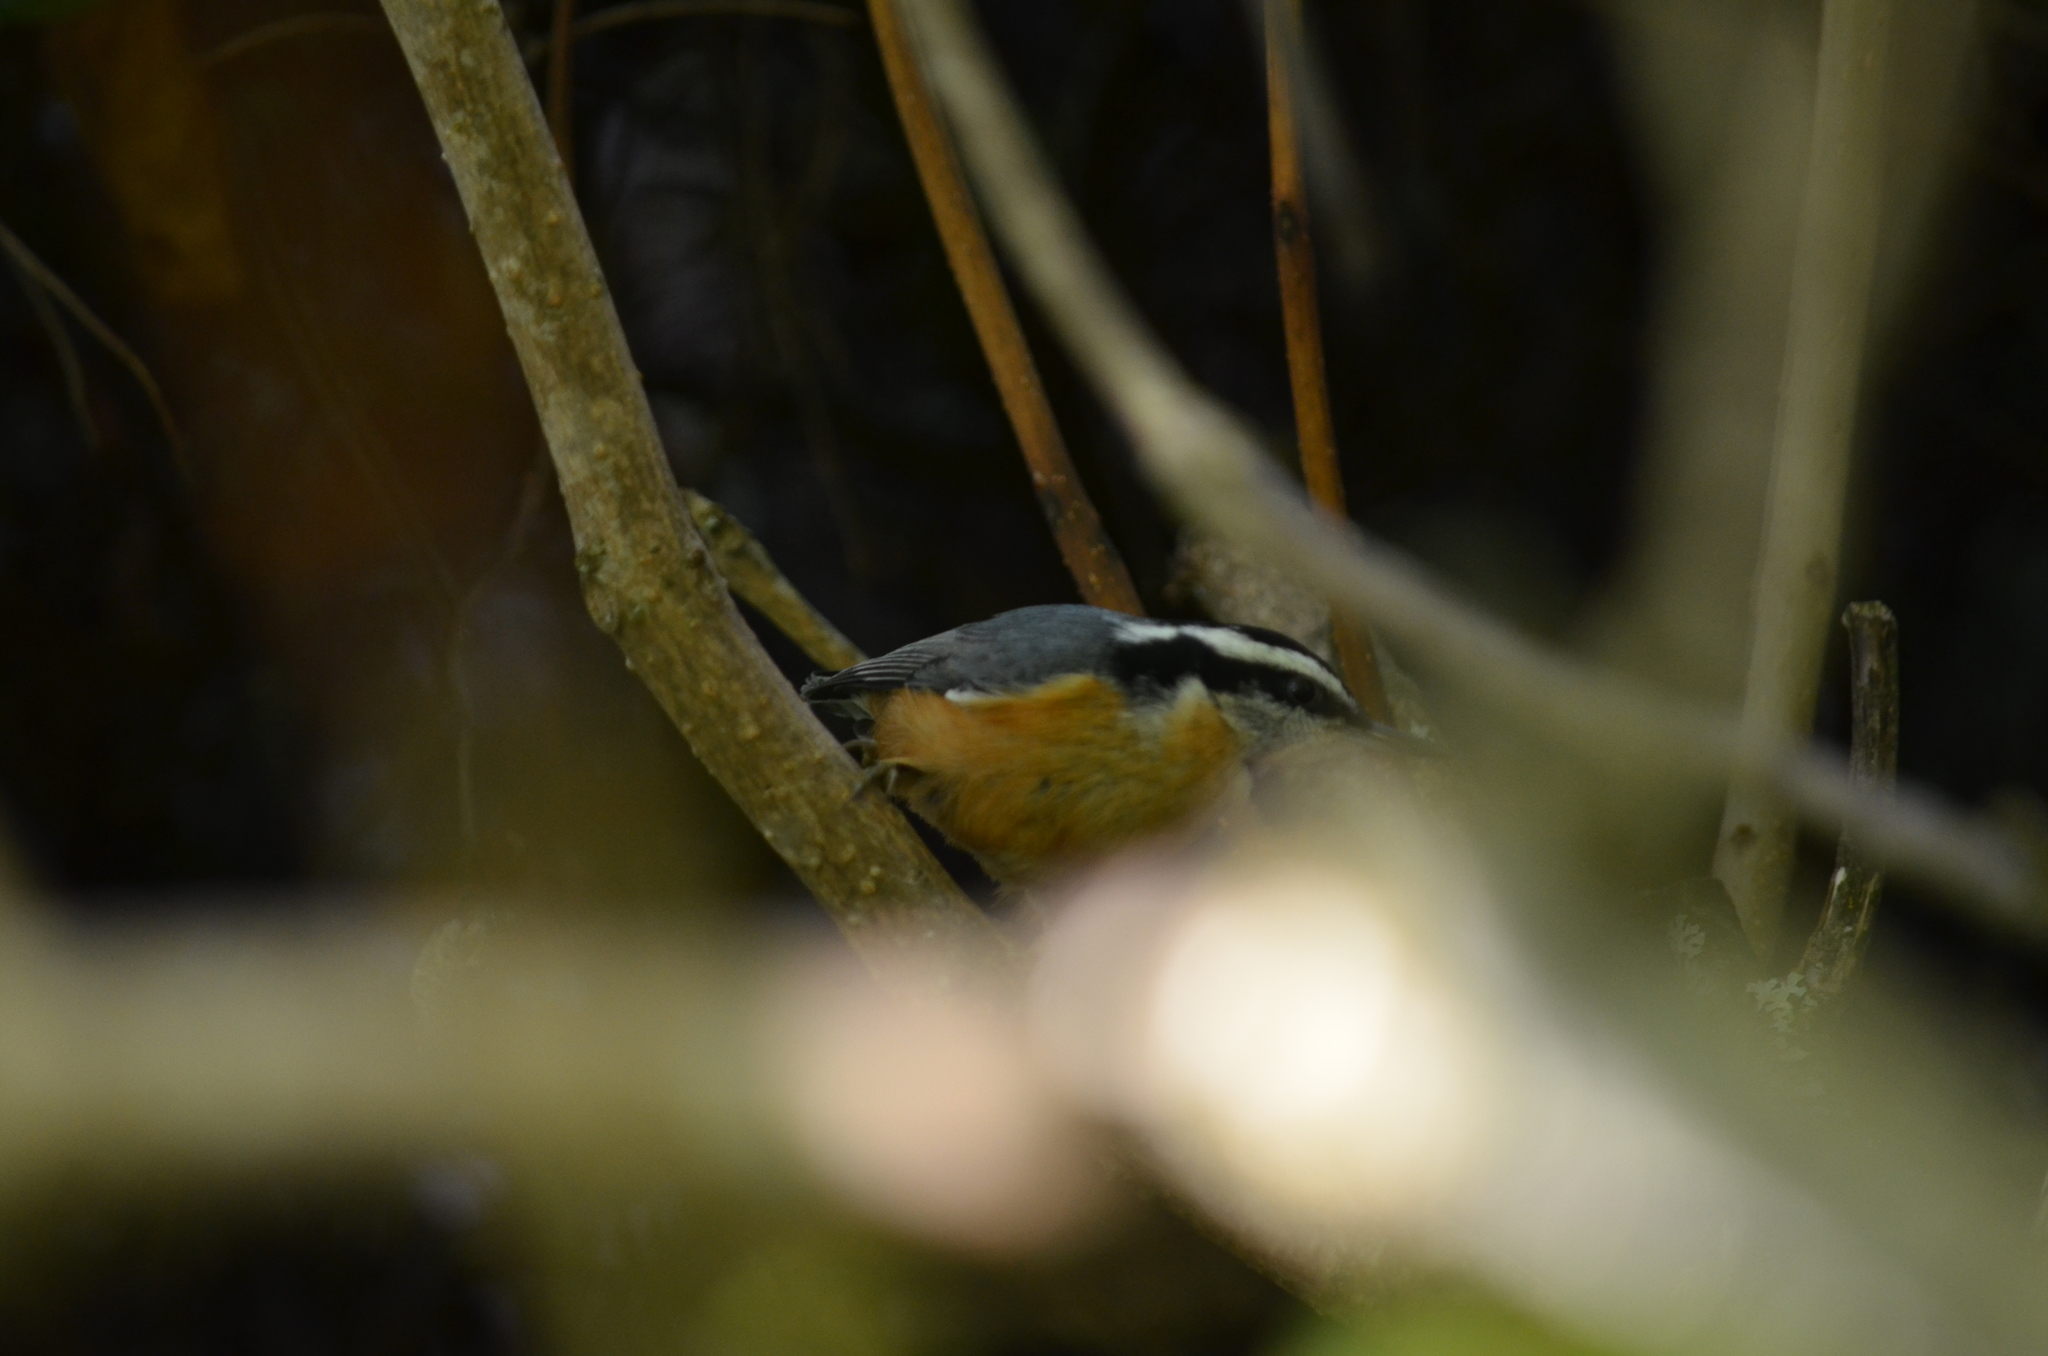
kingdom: Animalia
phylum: Chordata
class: Aves
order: Passeriformes
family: Sittidae
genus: Sitta
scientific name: Sitta canadensis
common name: Red-breasted nuthatch
